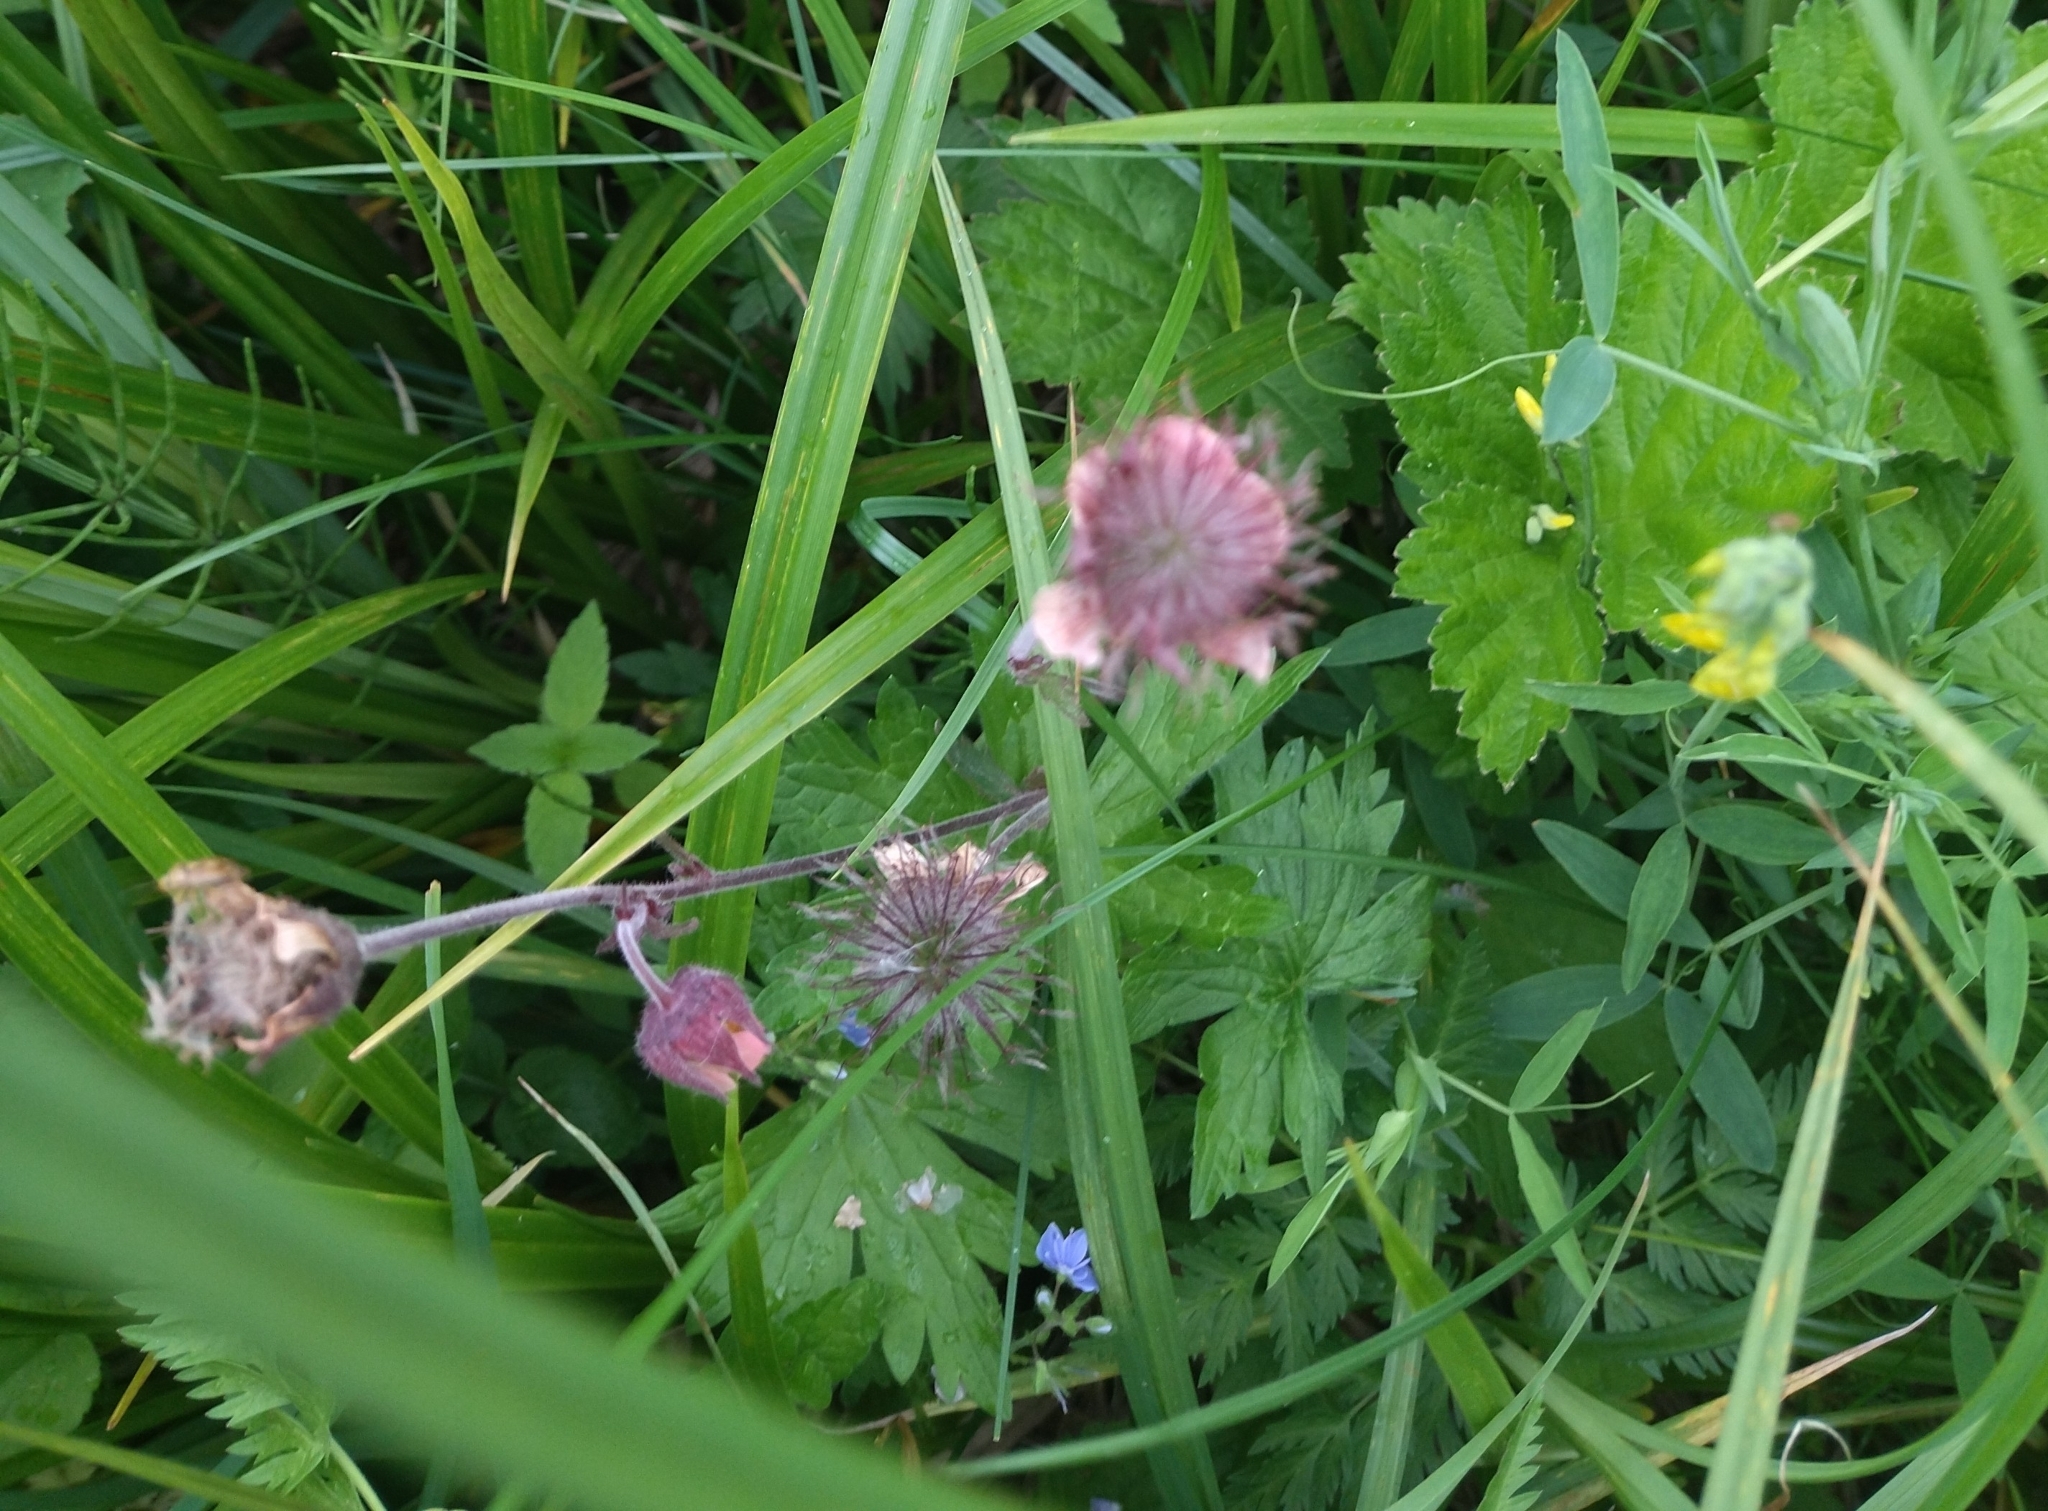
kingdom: Plantae
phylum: Tracheophyta
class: Magnoliopsida
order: Rosales
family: Rosaceae
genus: Geum
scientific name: Geum rivale
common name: Water avens
